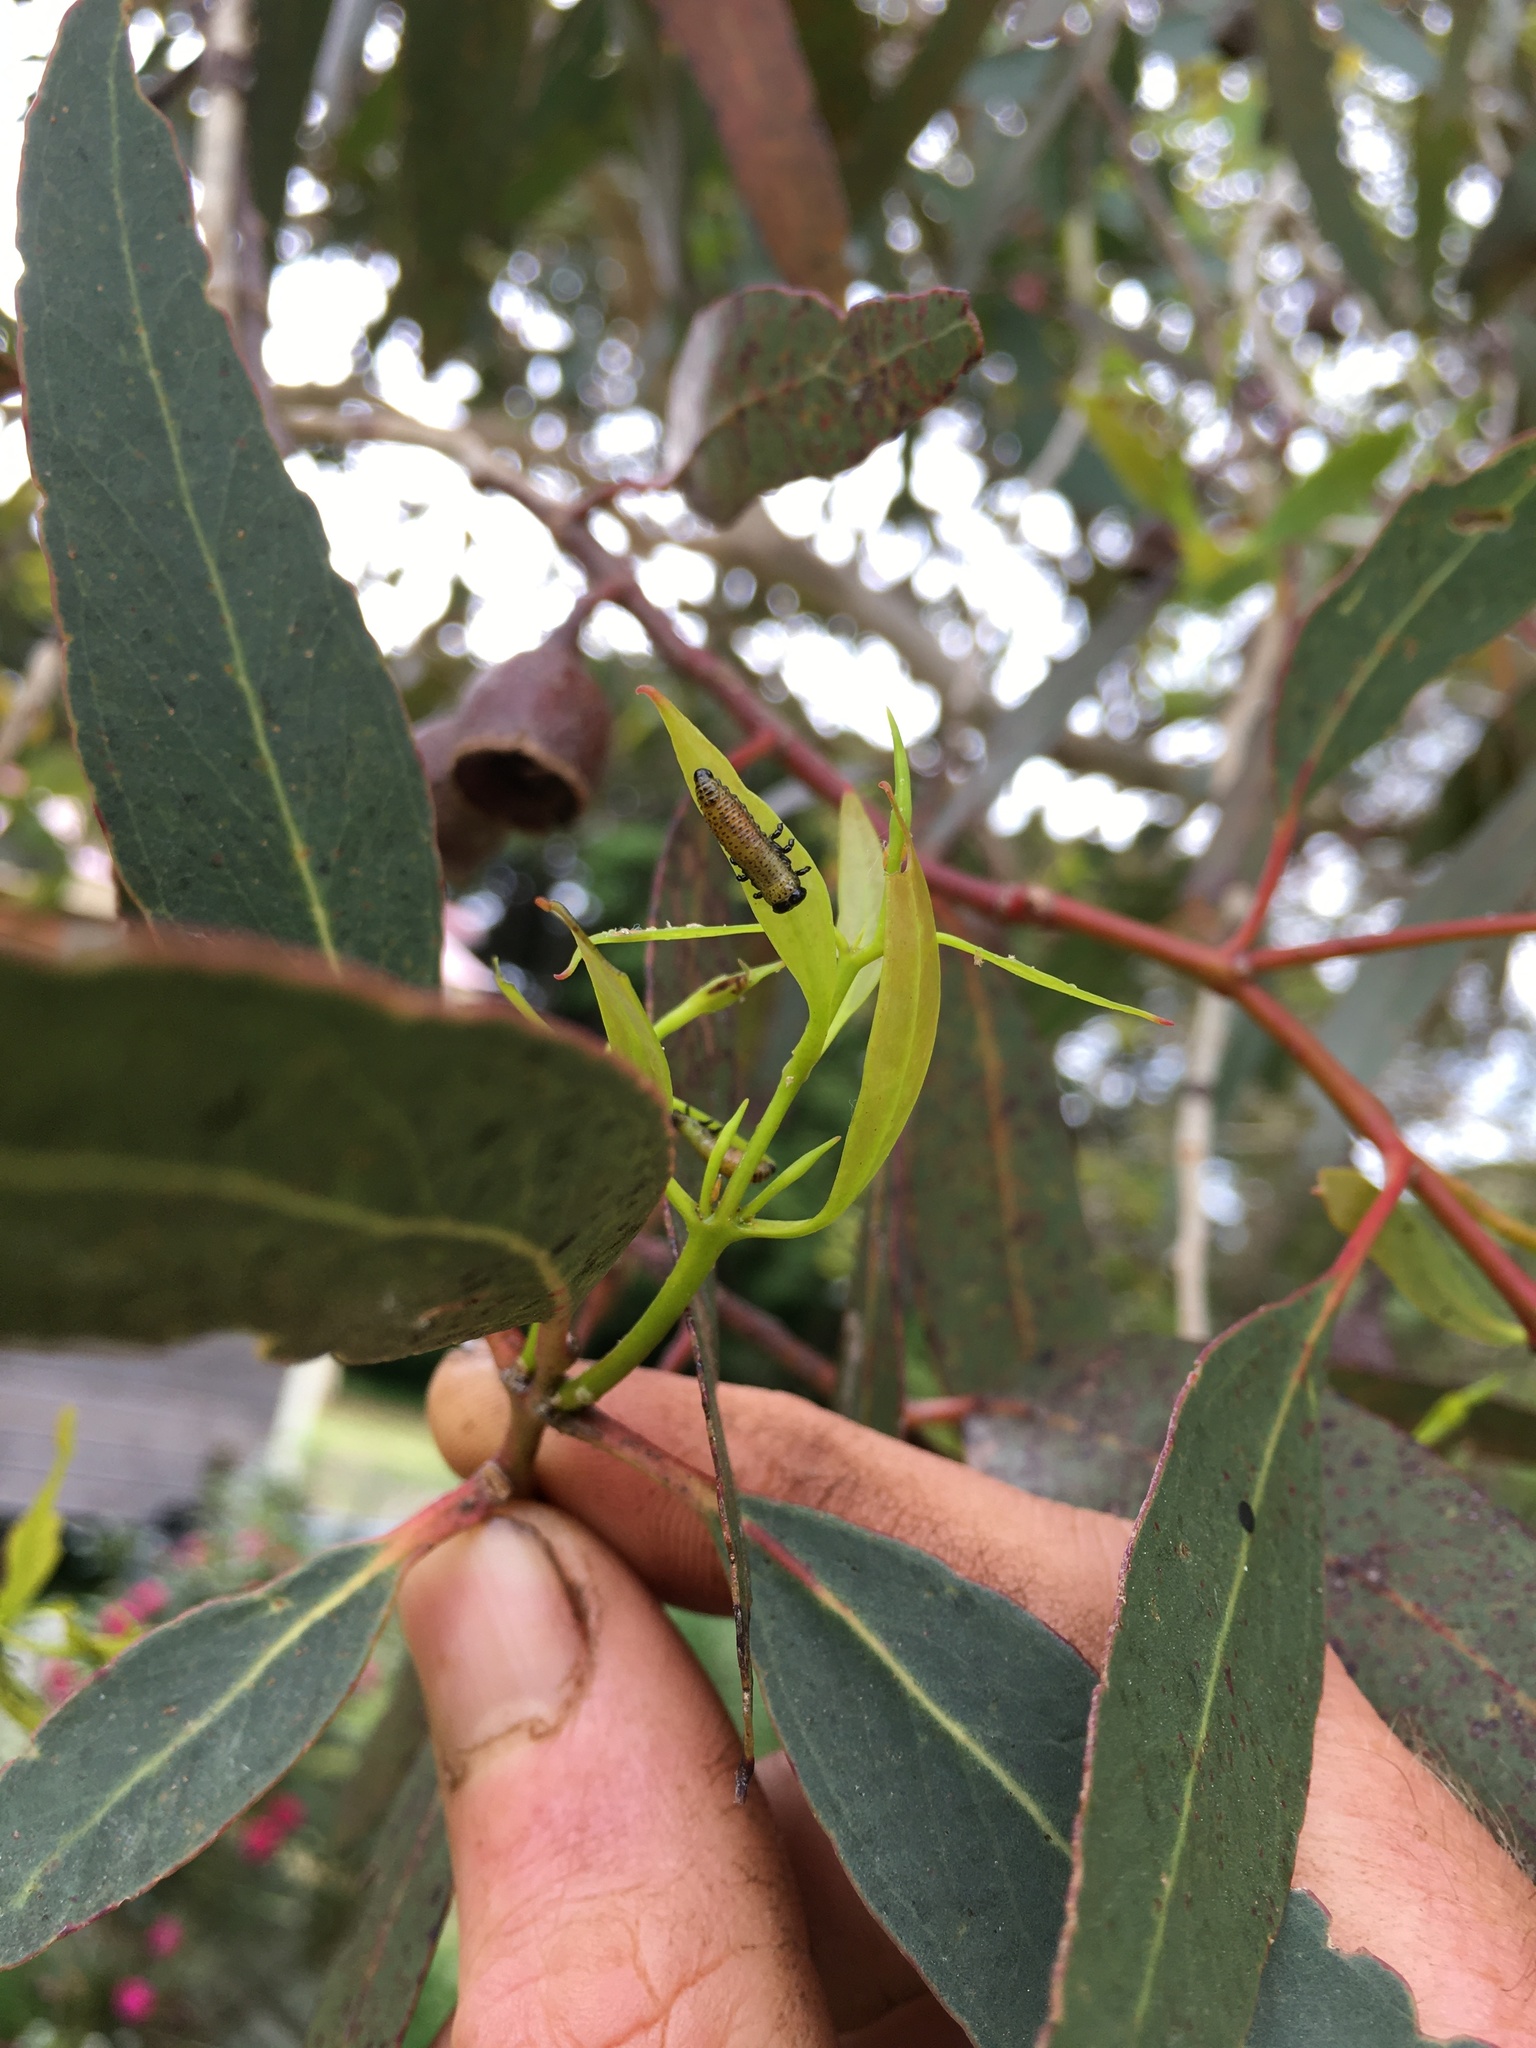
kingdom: Animalia
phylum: Arthropoda
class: Insecta
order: Coleoptera
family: Chrysomelidae
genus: Paropsis
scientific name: Paropsis charybdis
